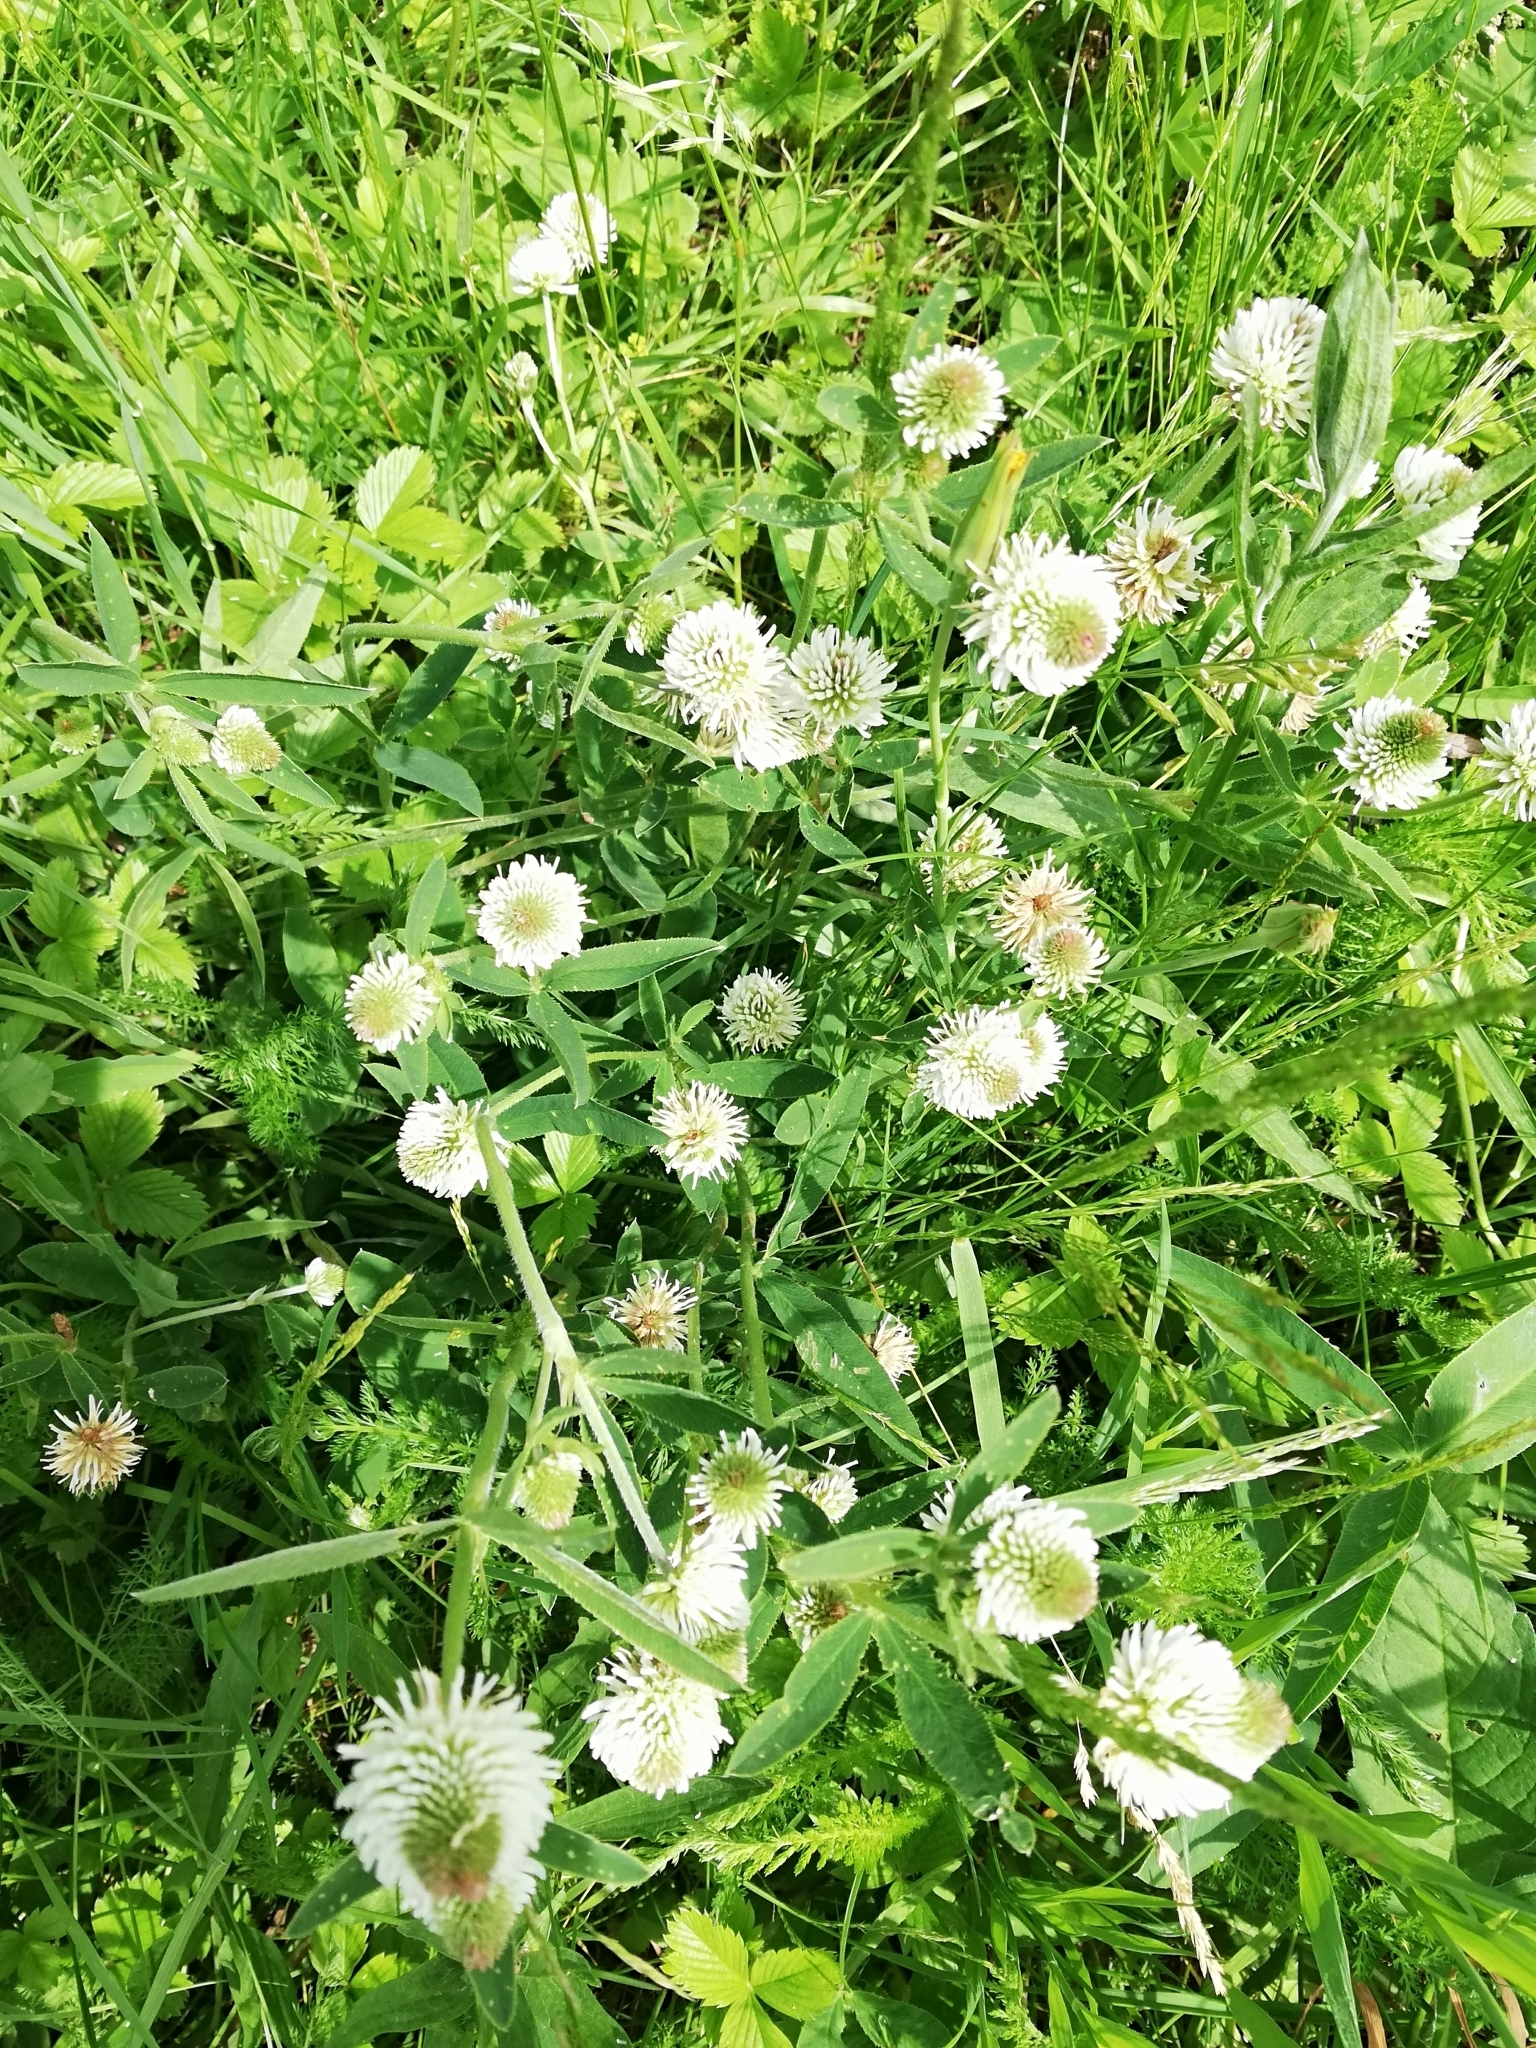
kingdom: Plantae
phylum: Tracheophyta
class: Magnoliopsida
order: Fabales
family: Fabaceae
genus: Trifolium
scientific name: Trifolium montanum
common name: Mountain clover
